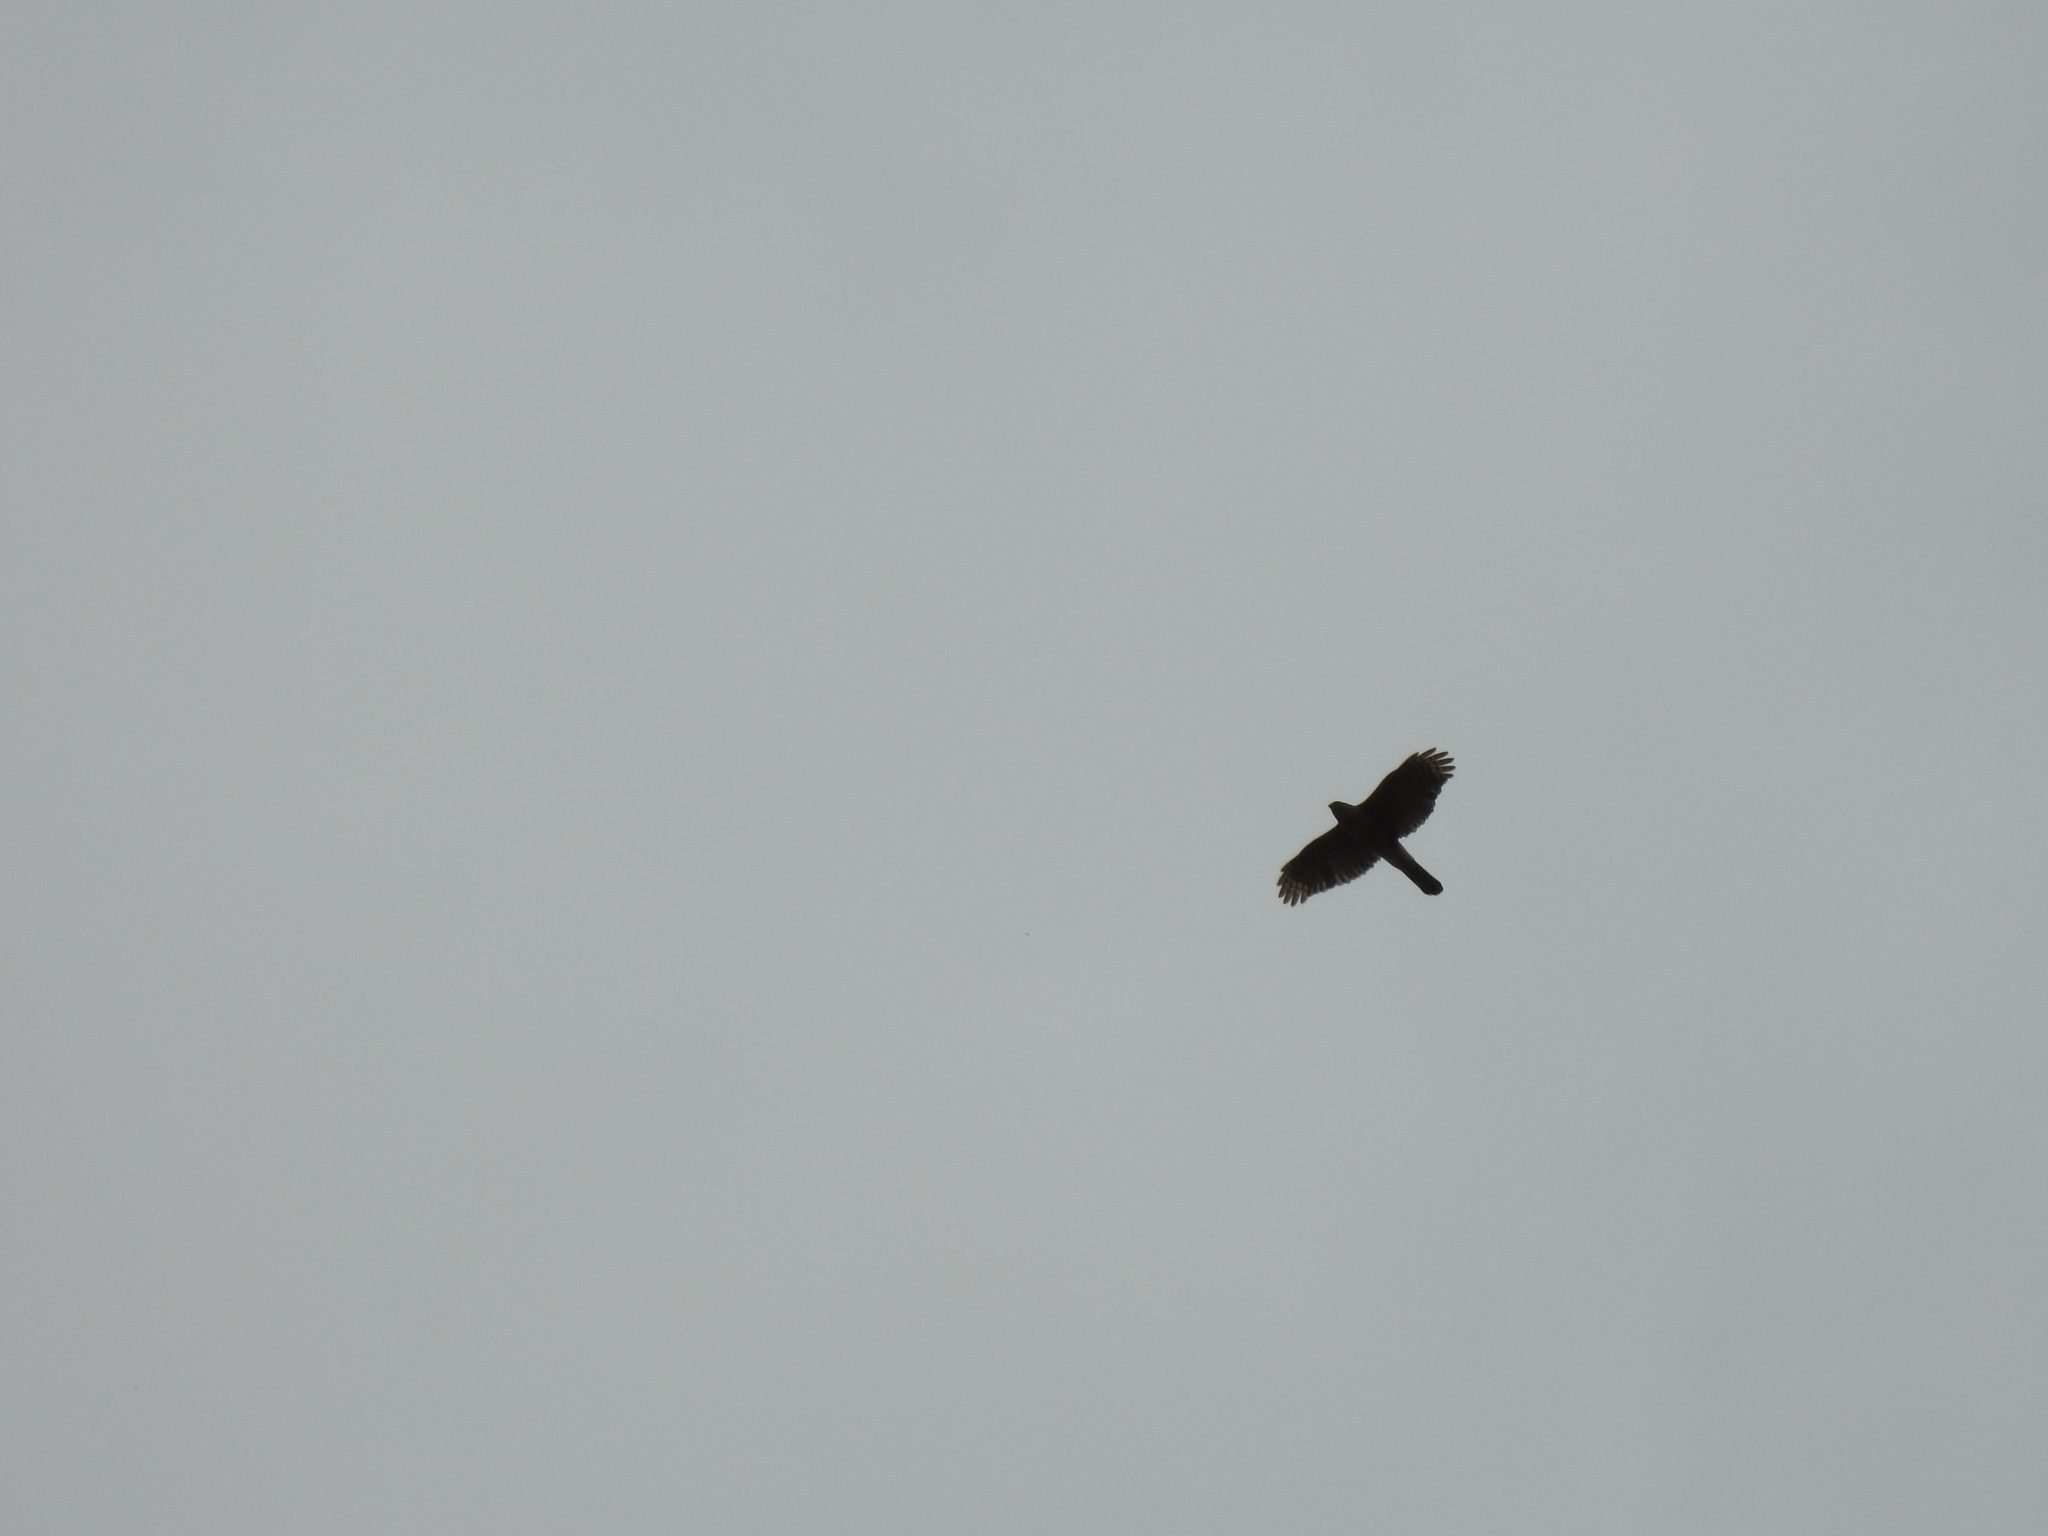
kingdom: Animalia
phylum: Chordata
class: Aves
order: Accipitriformes
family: Accipitridae
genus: Accipiter
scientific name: Accipiter cooperii
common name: Cooper's hawk
